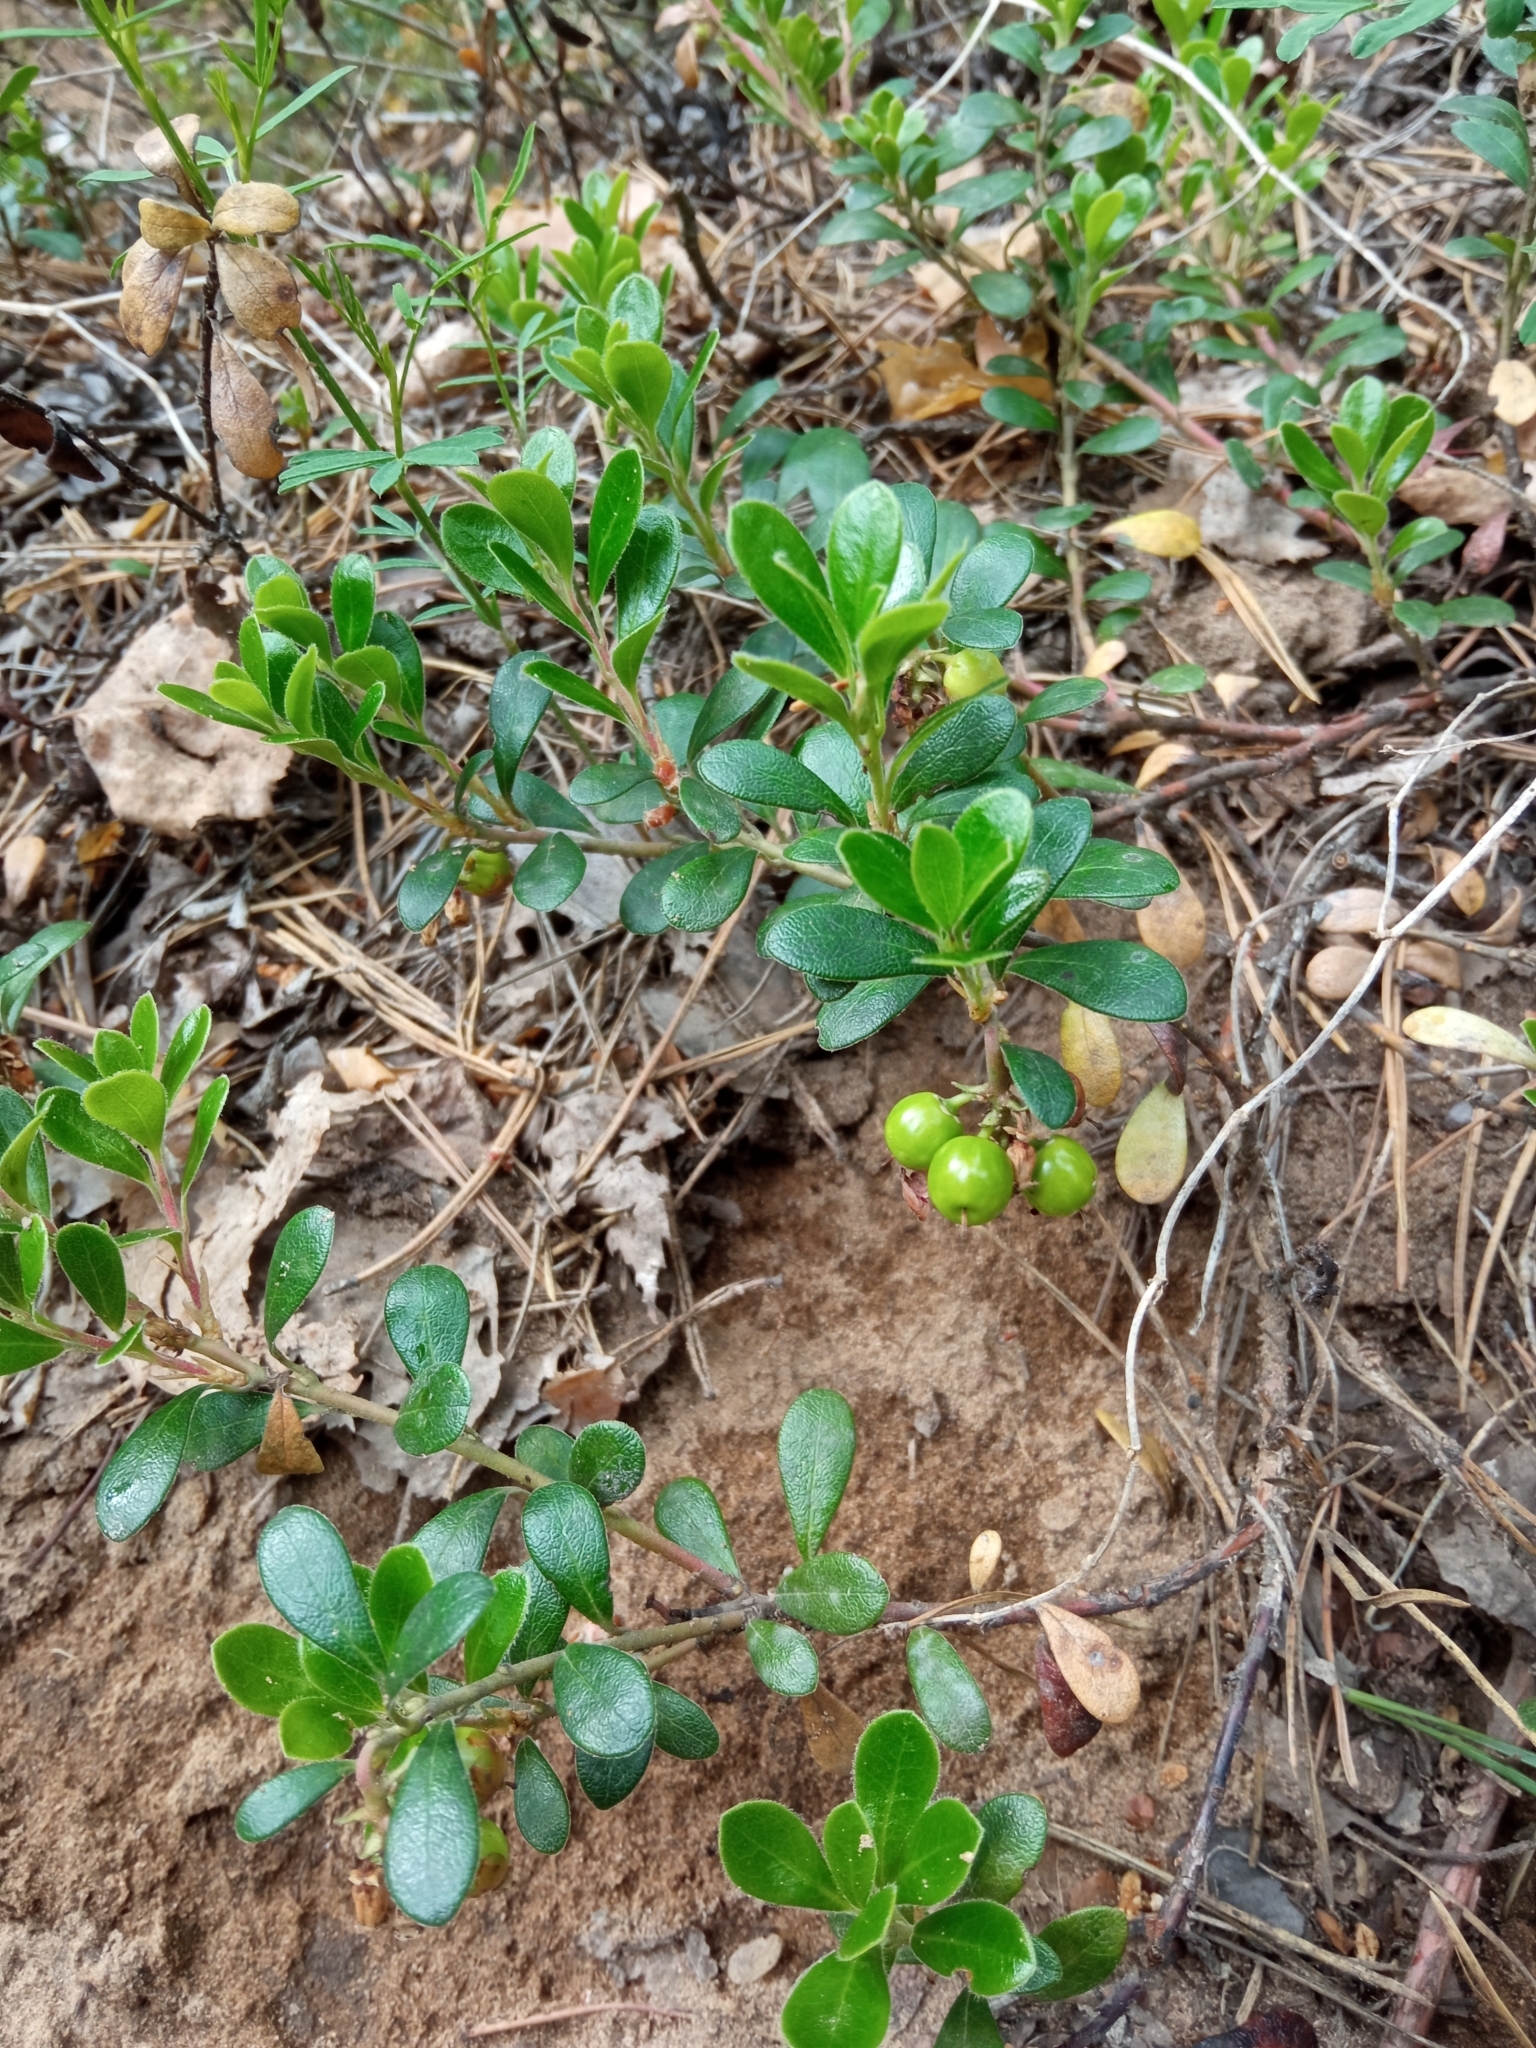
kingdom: Plantae
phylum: Tracheophyta
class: Magnoliopsida
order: Ericales
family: Ericaceae
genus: Arctostaphylos
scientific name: Arctostaphylos uva-ursi
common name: Bearberry
